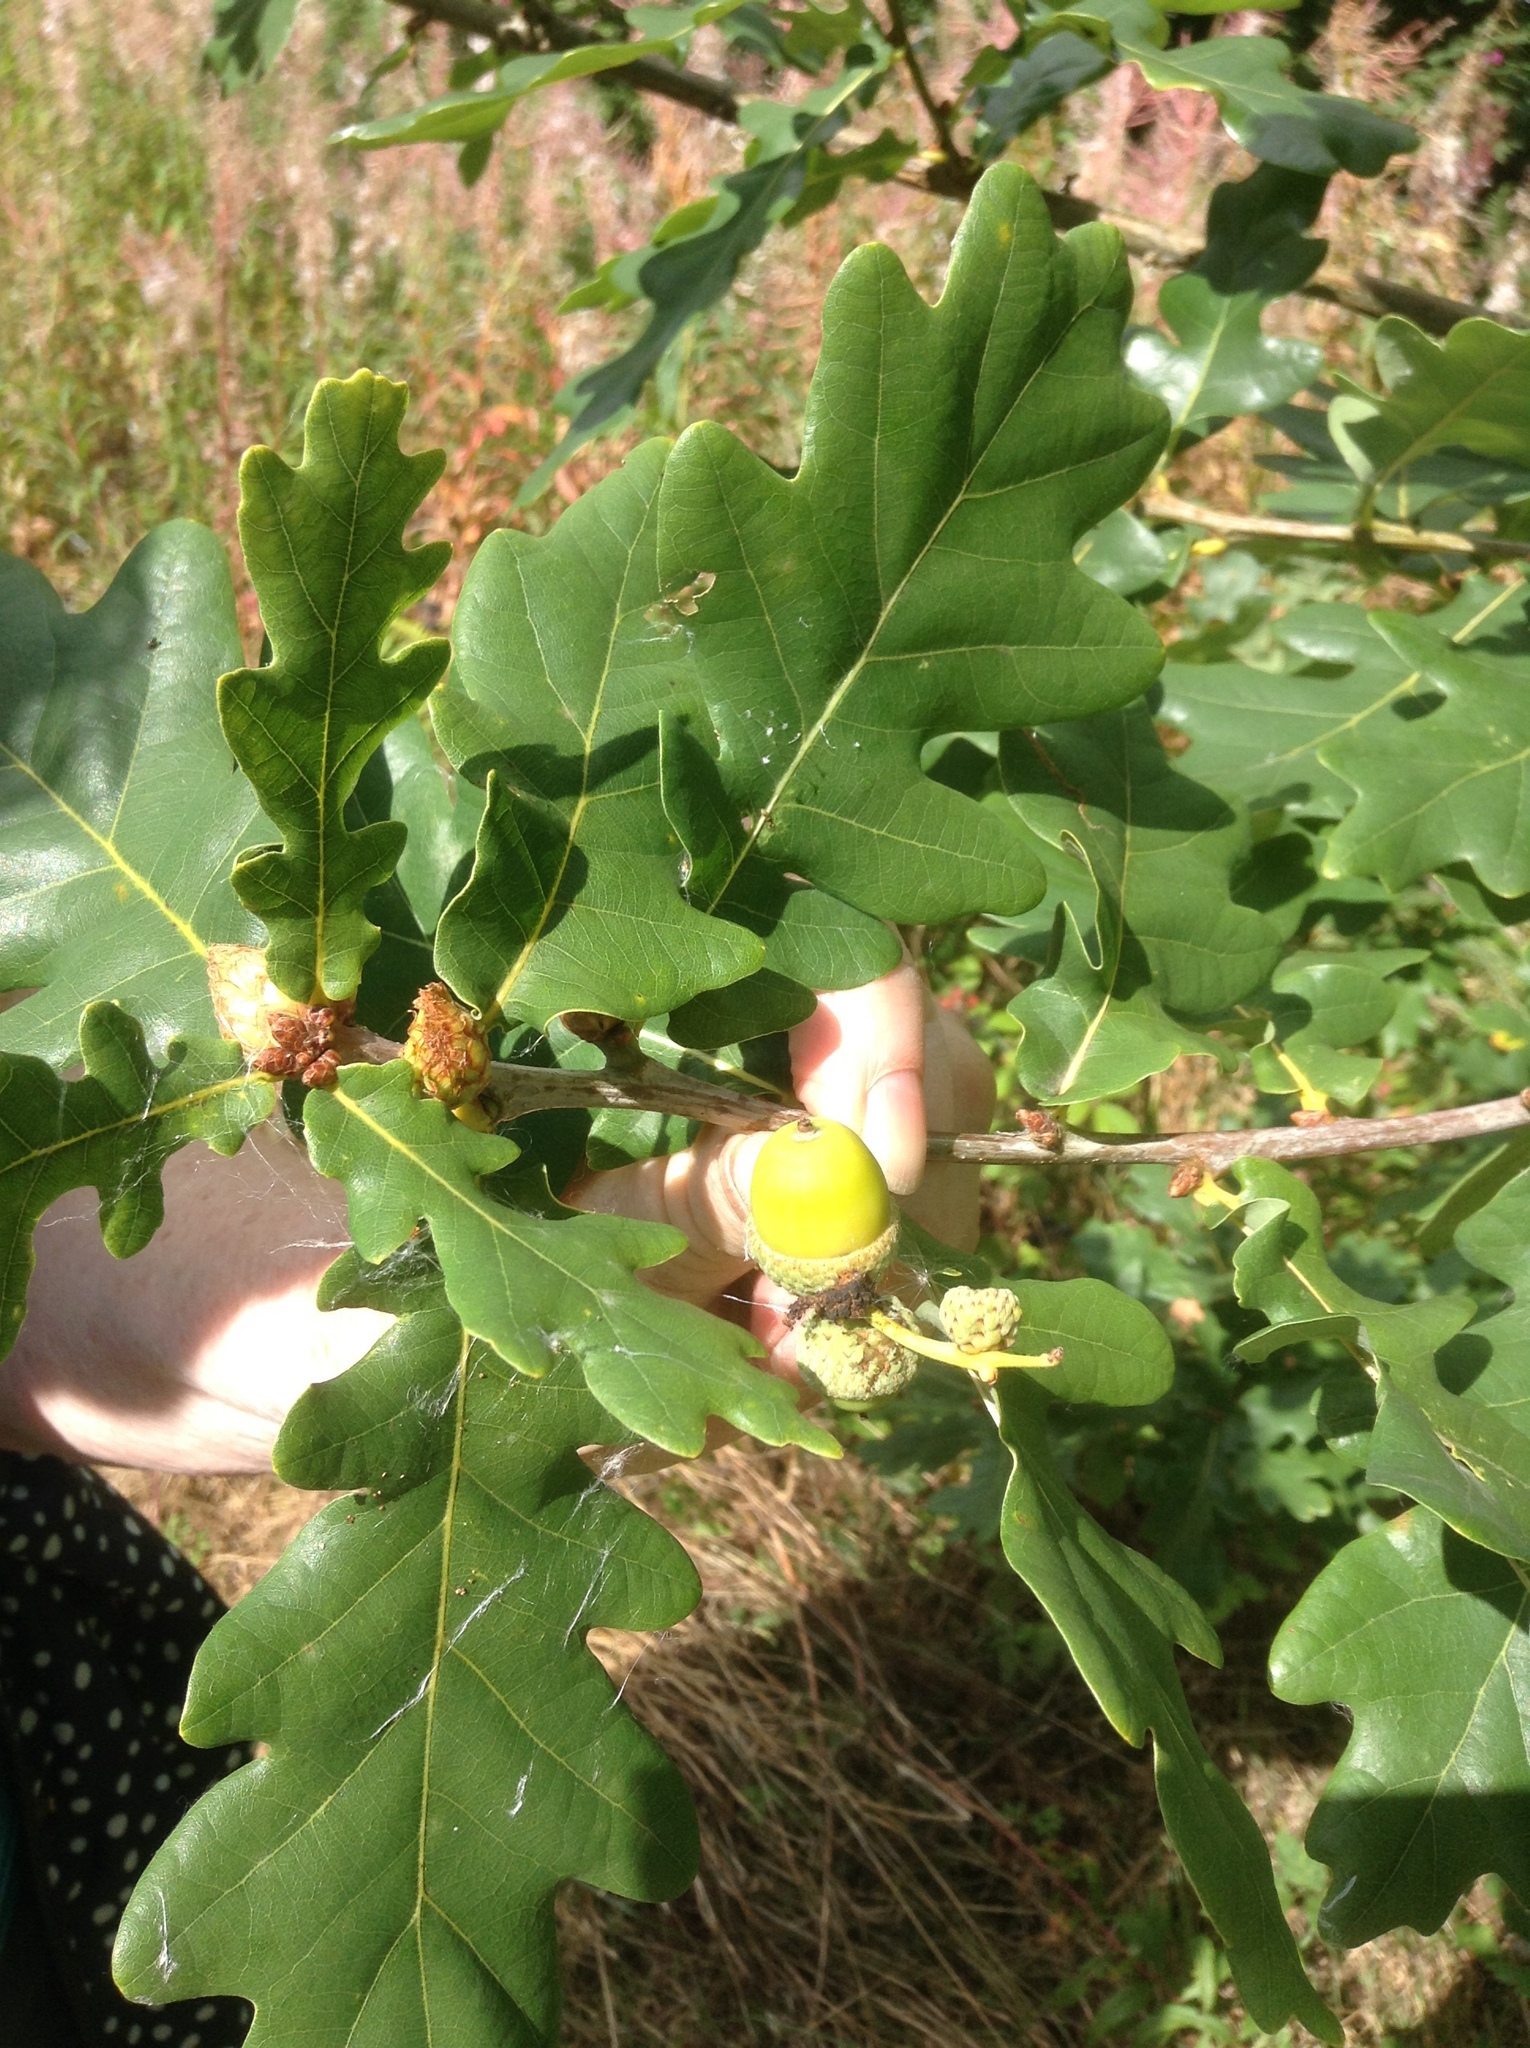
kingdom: Plantae
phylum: Tracheophyta
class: Magnoliopsida
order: Fagales
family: Fagaceae
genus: Quercus
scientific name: Quercus robur
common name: Pedunculate oak
